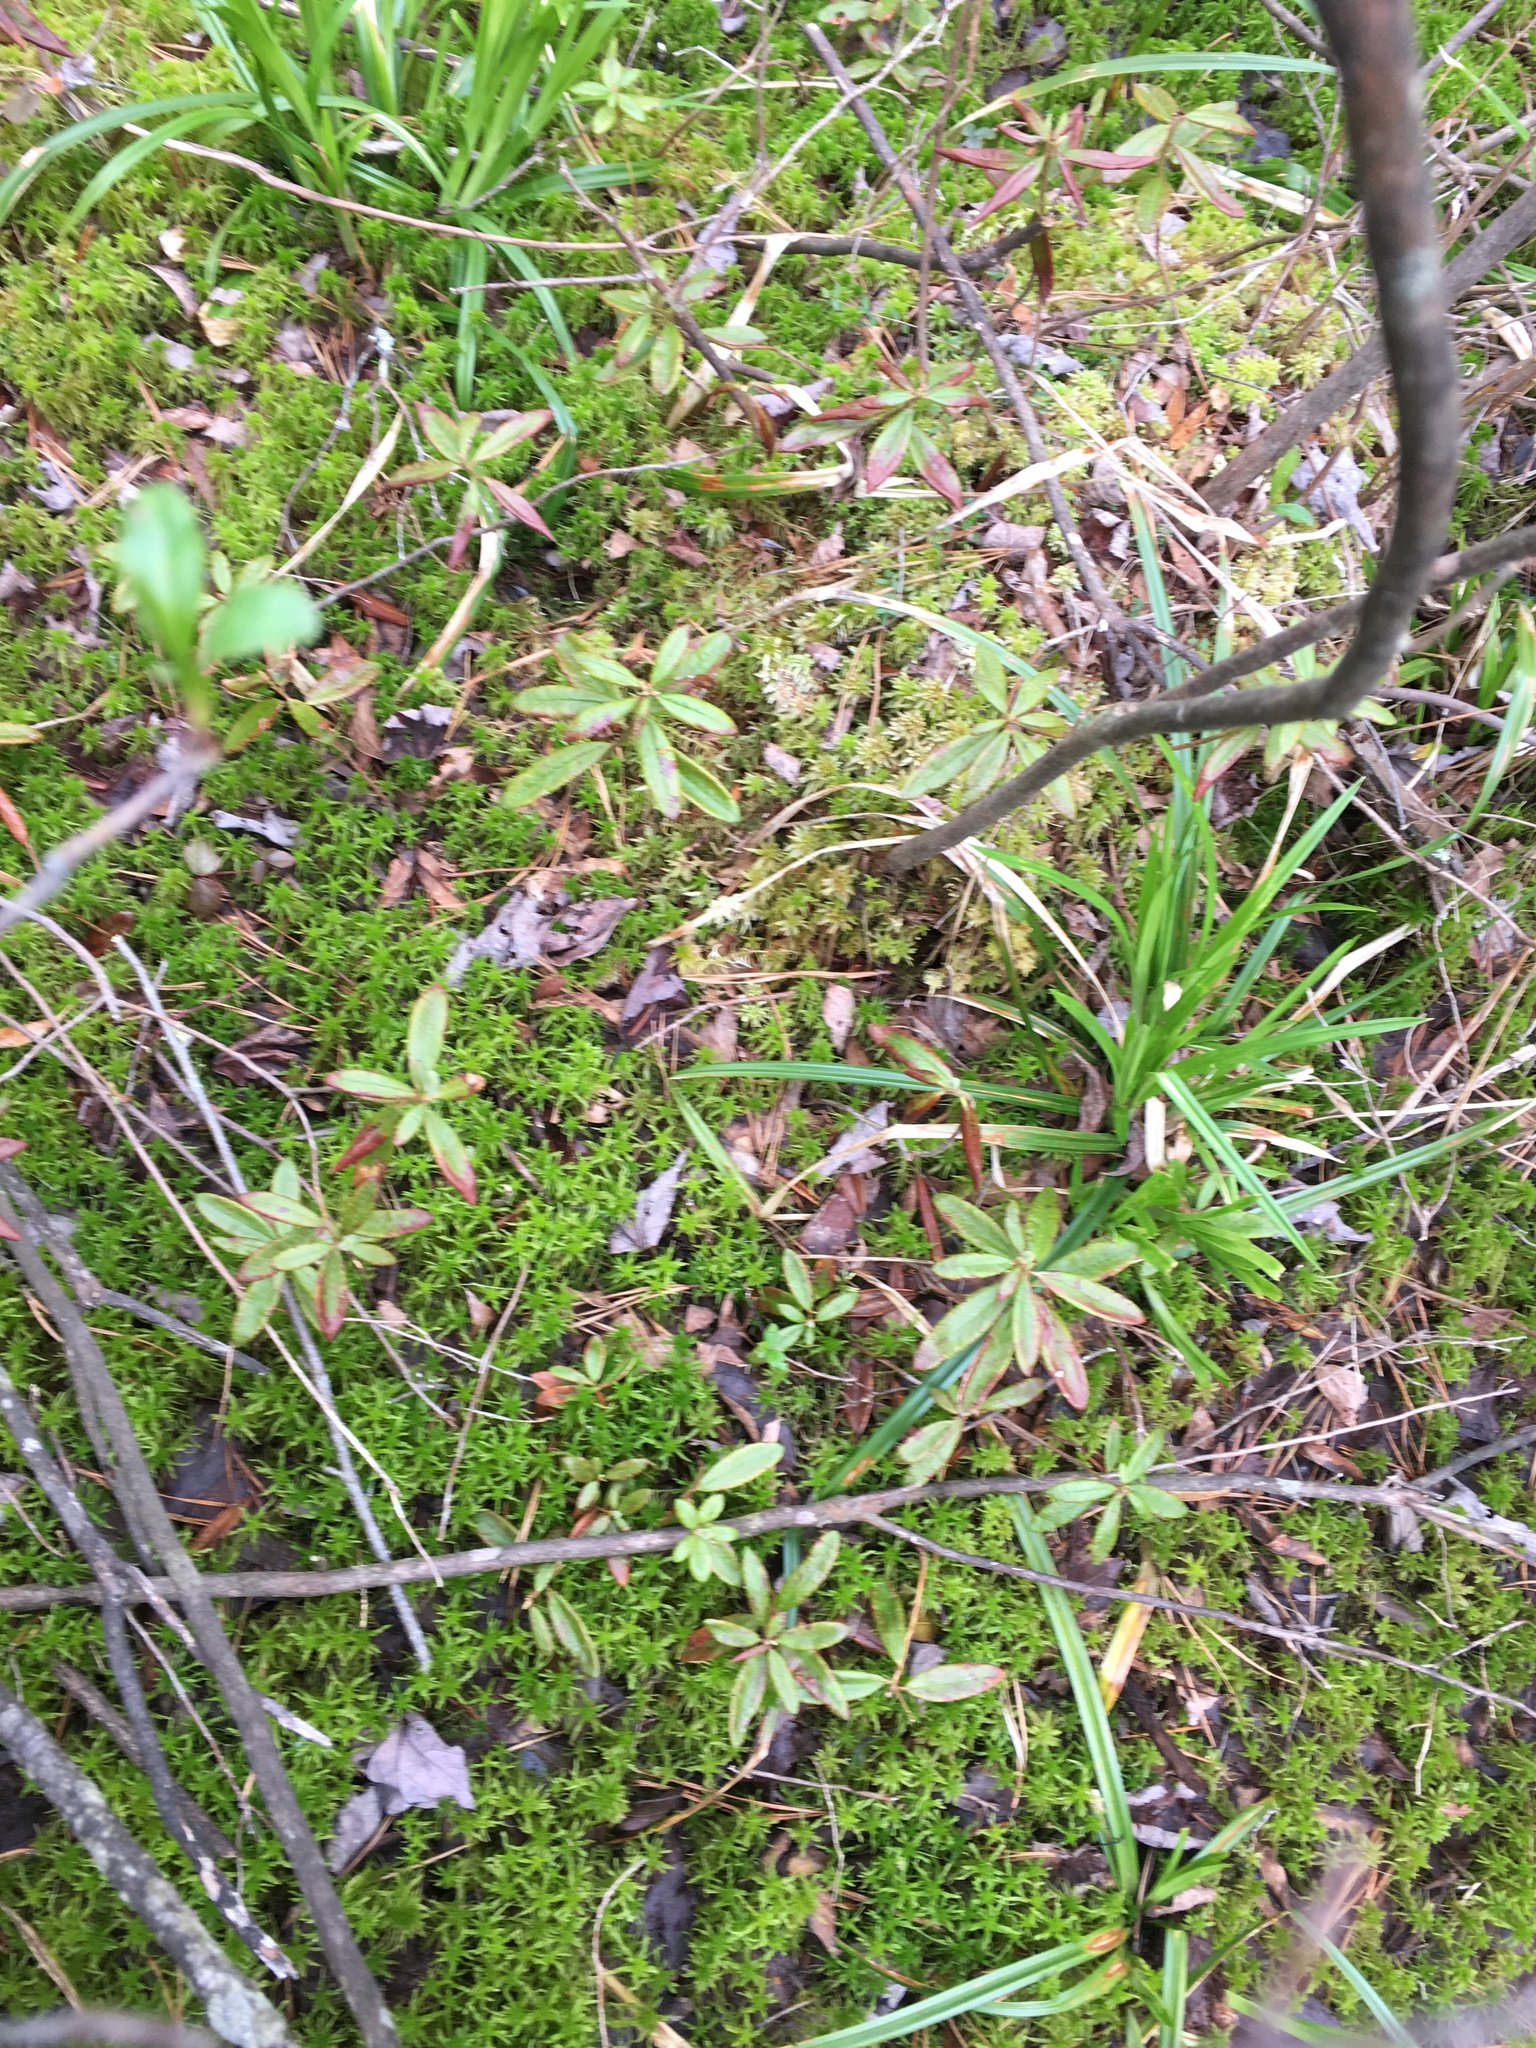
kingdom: Plantae
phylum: Tracheophyta
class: Magnoliopsida
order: Ericales
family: Ericaceae
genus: Rhododendron
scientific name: Rhododendron groenlandicum
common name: Bog labrador tea
